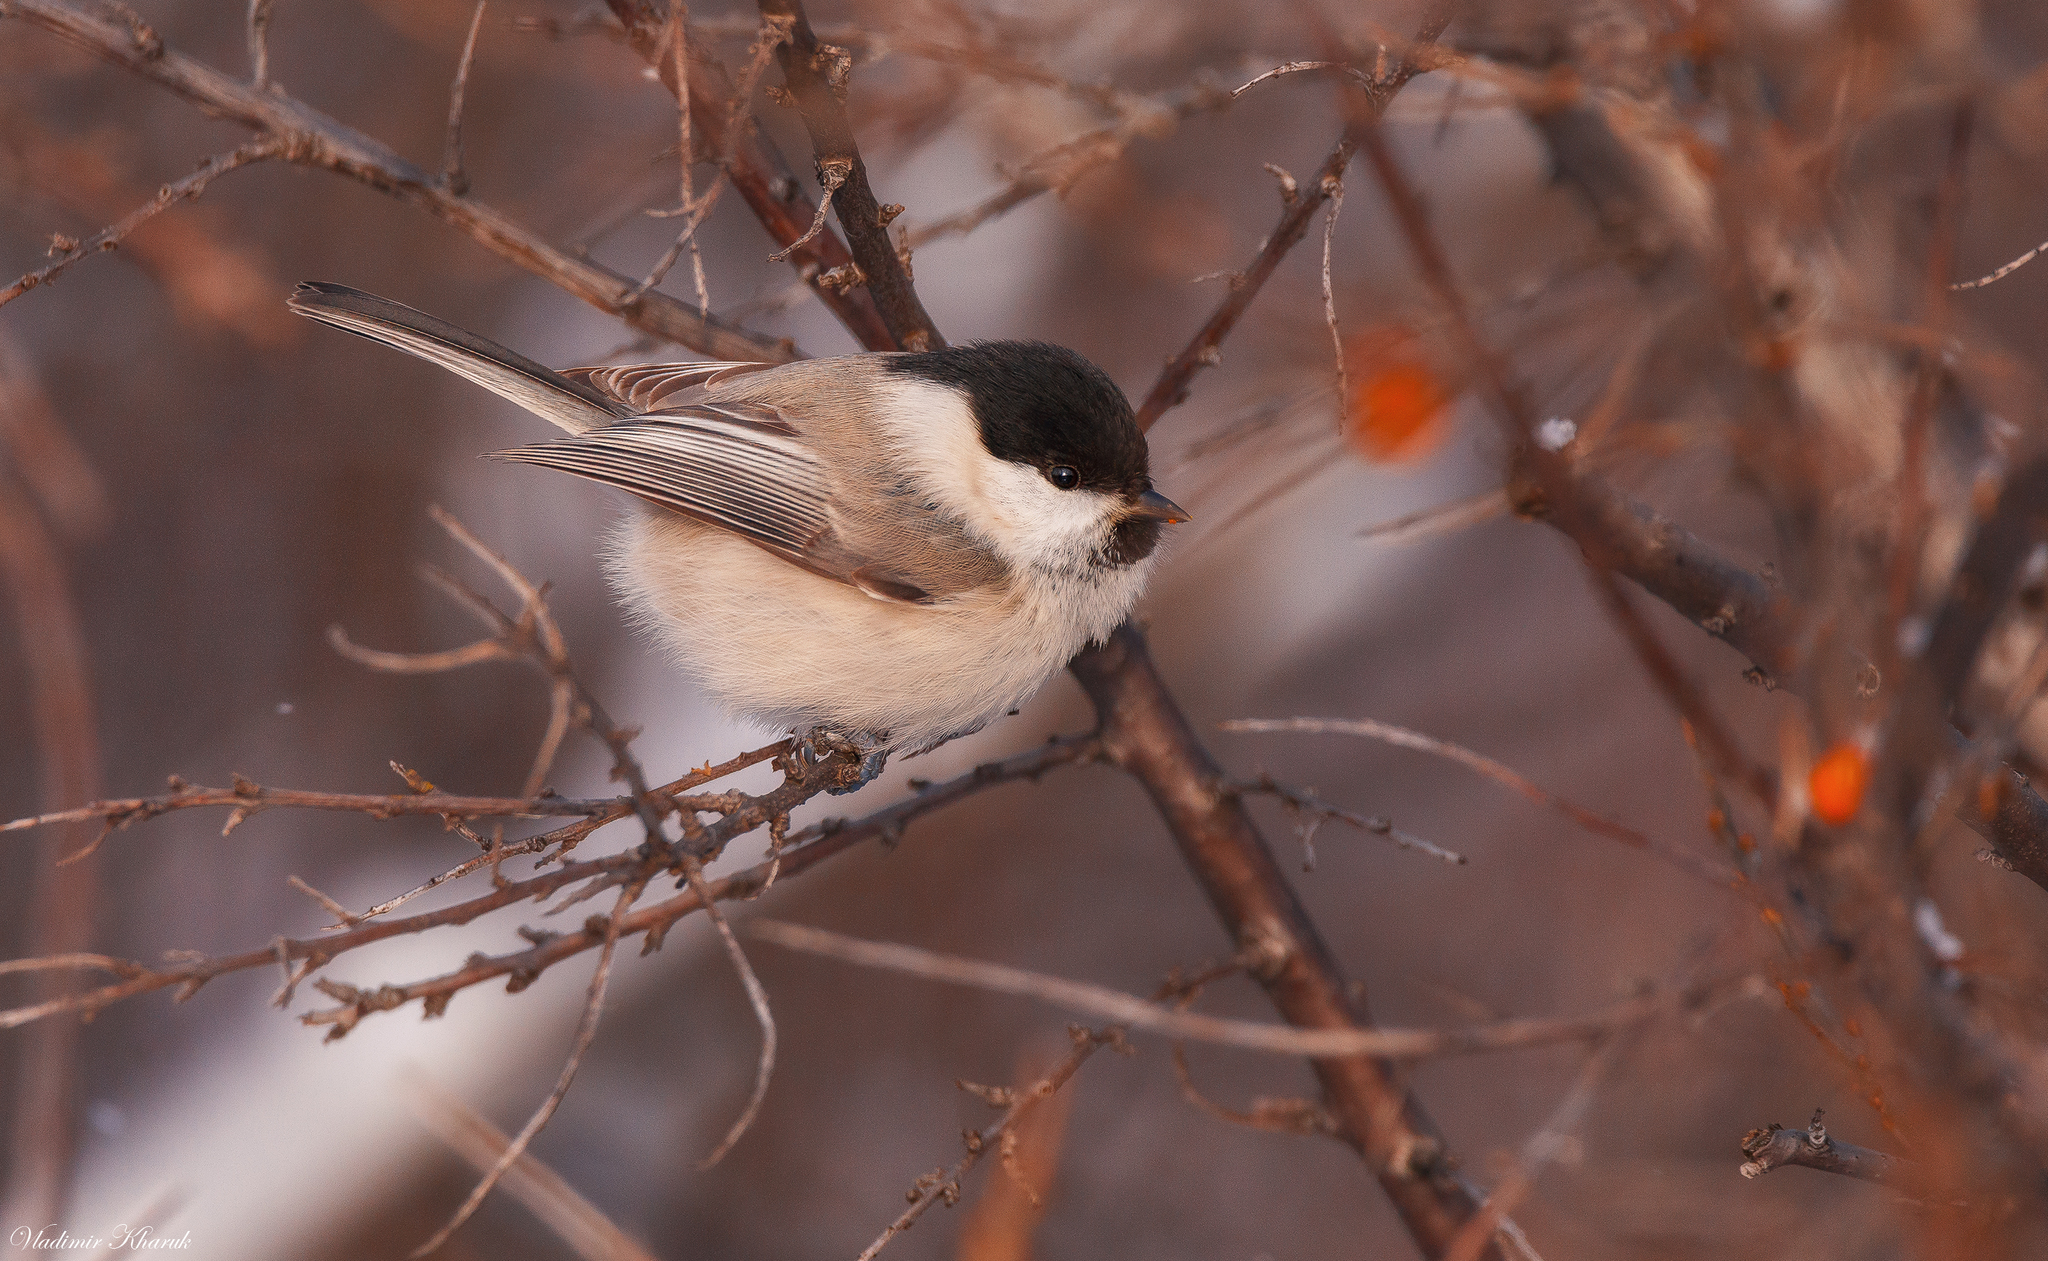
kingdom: Animalia
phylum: Chordata
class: Aves
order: Passeriformes
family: Paridae
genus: Poecile
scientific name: Poecile montanus
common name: Willow tit
